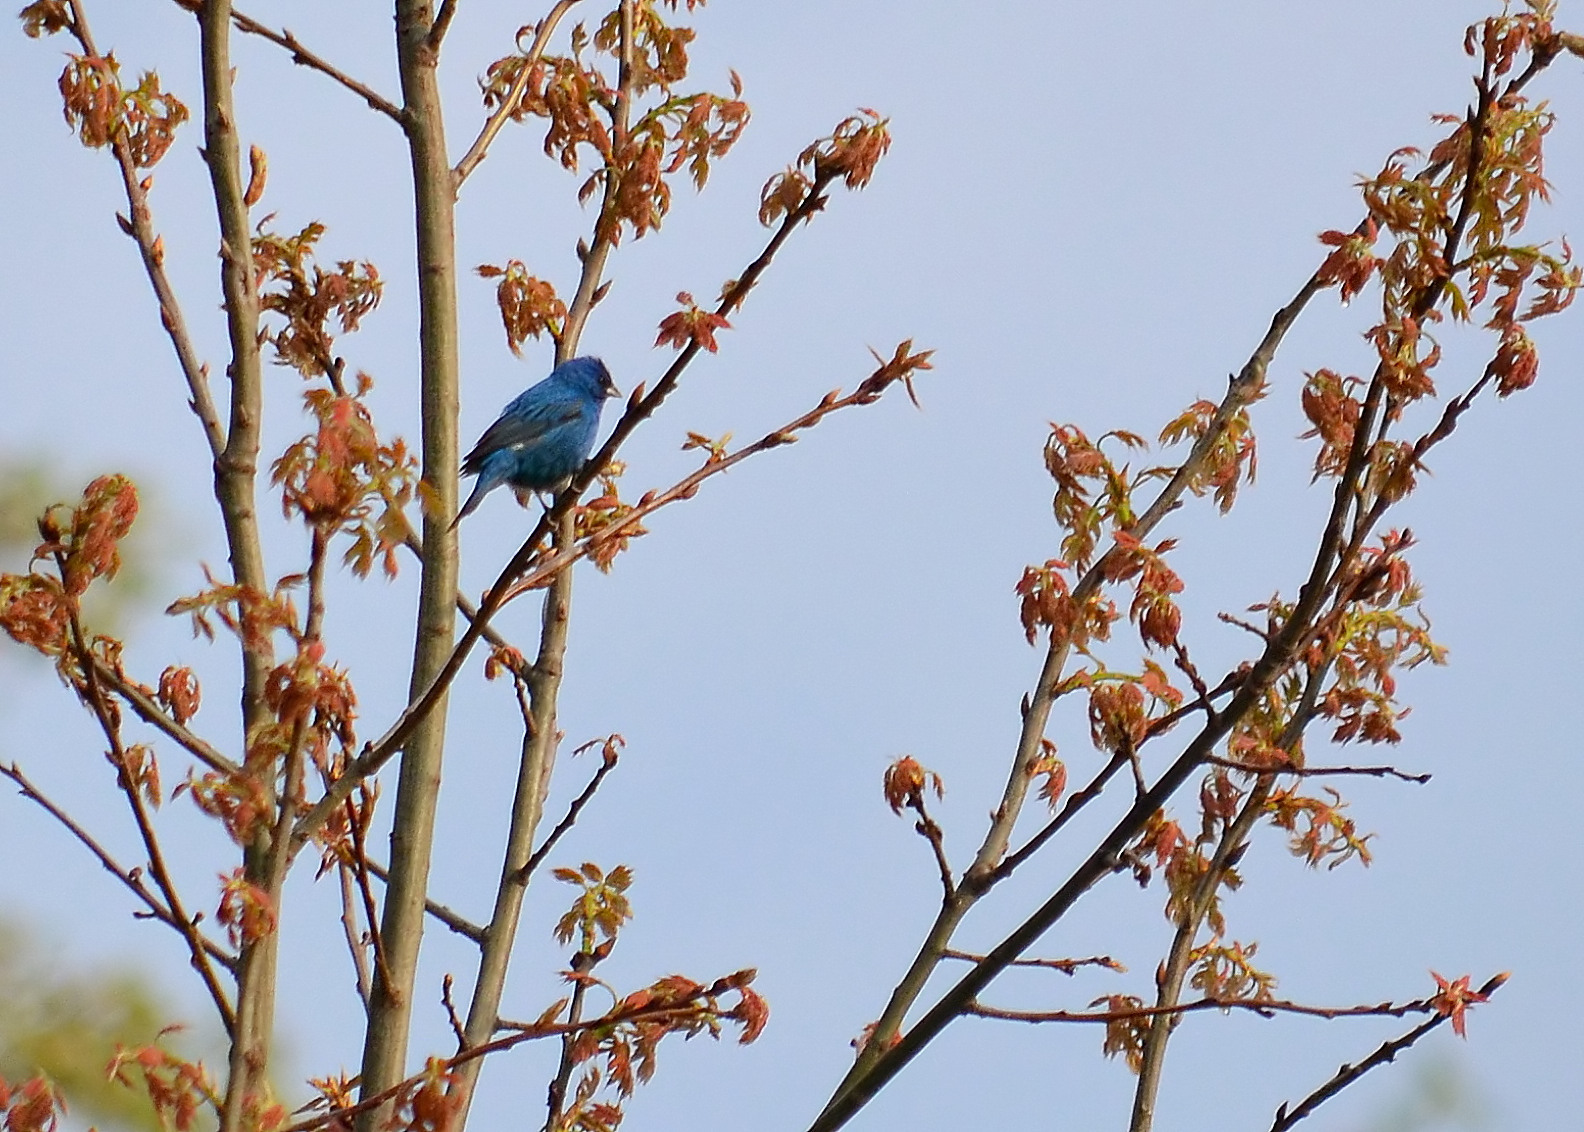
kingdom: Animalia
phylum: Chordata
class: Aves
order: Passeriformes
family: Cardinalidae
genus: Passerina
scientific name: Passerina cyanea
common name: Indigo bunting
